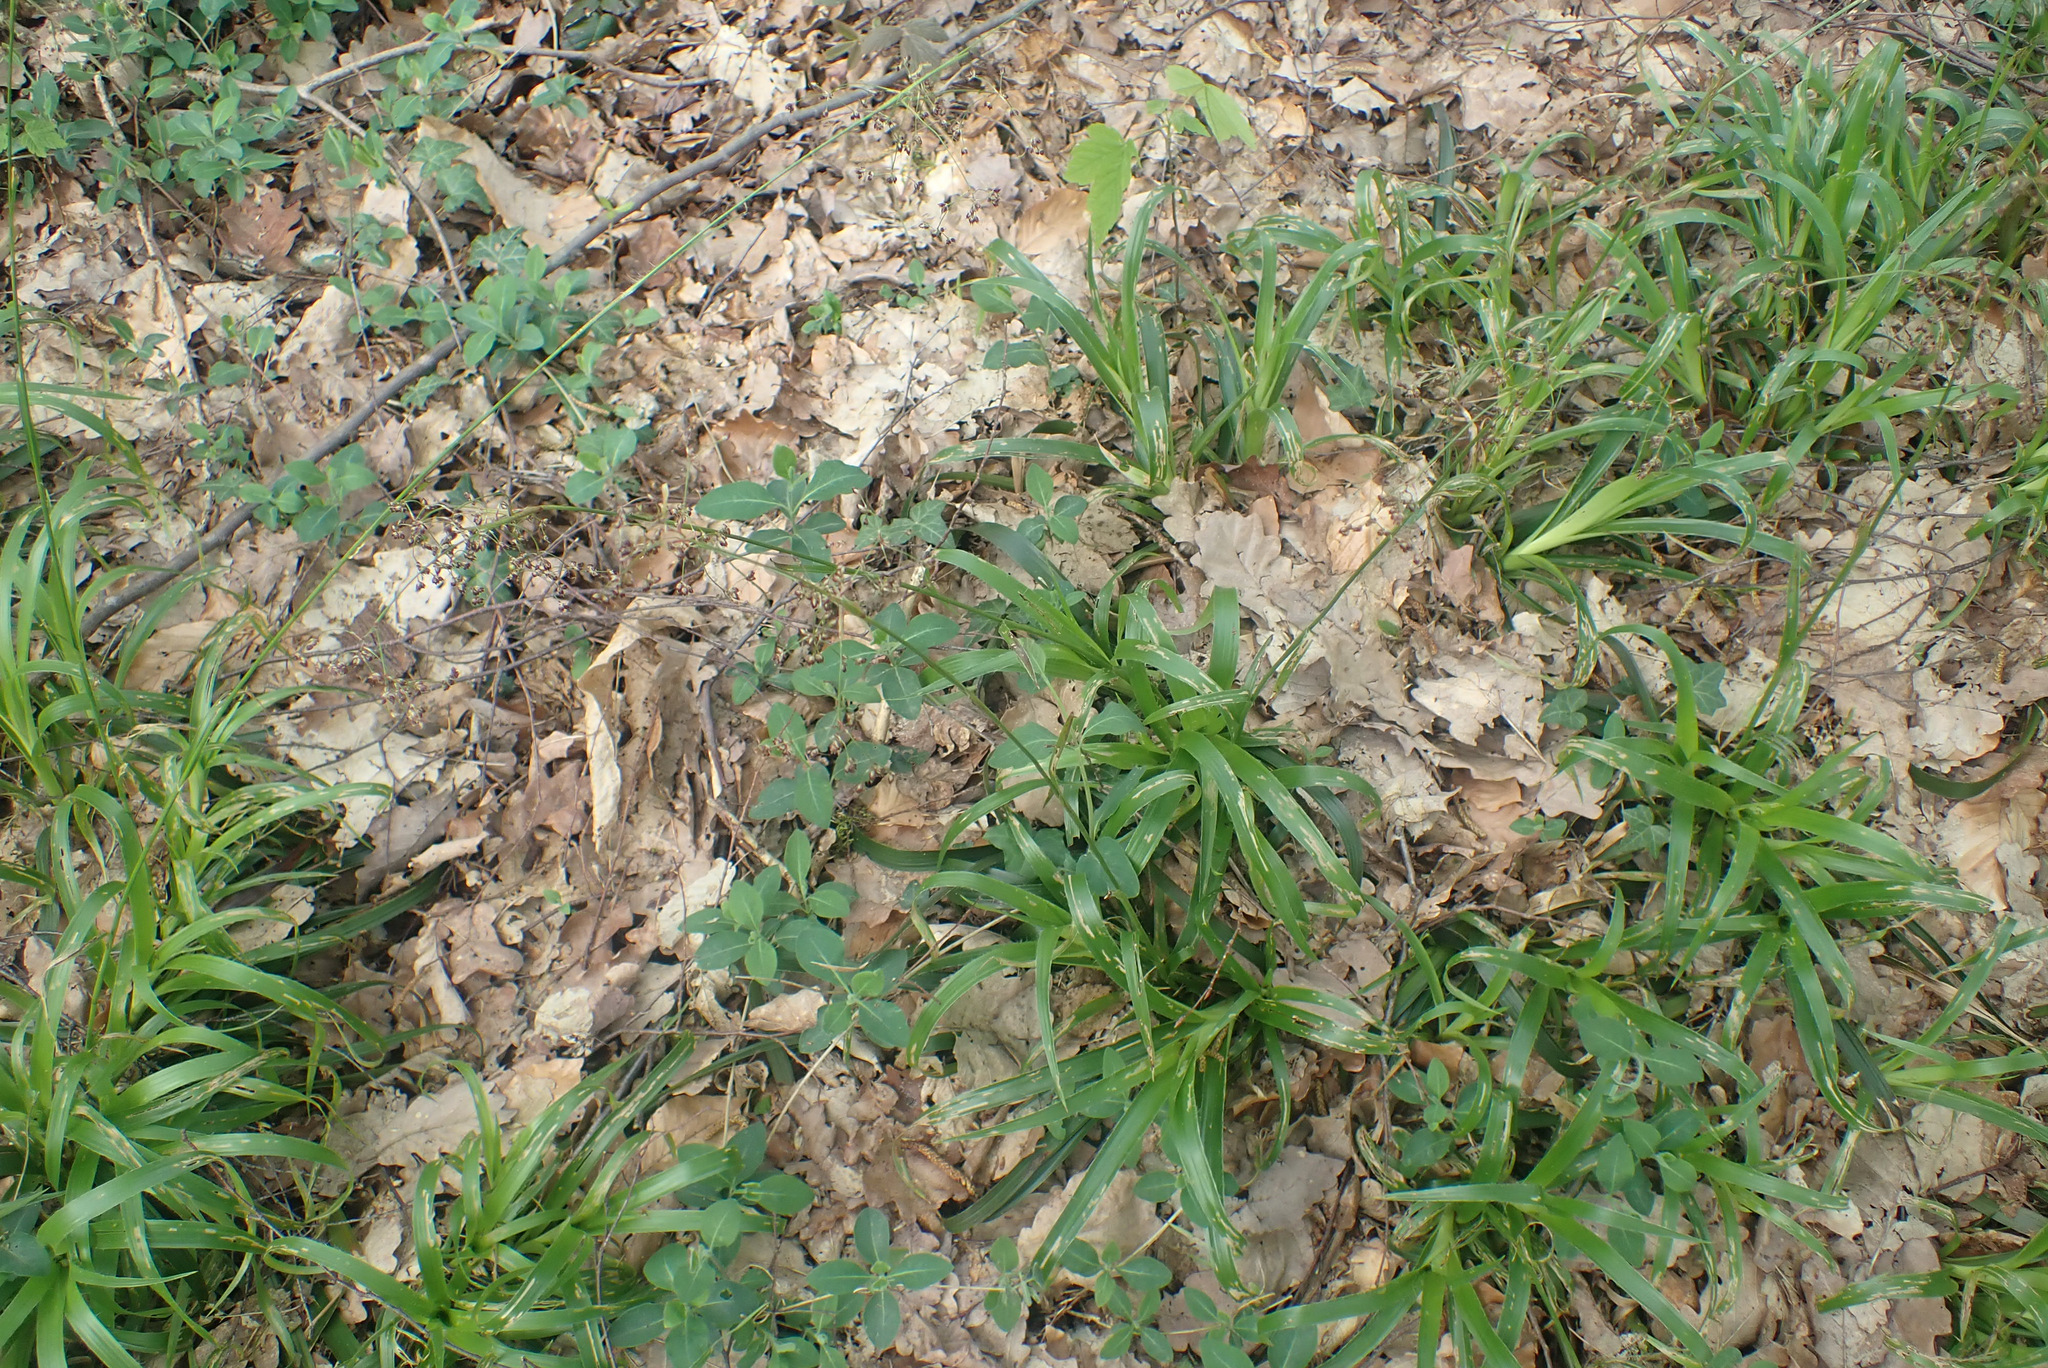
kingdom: Plantae
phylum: Tracheophyta
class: Liliopsida
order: Poales
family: Juncaceae
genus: Luzula
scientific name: Luzula sylvatica
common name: Great wood-rush
